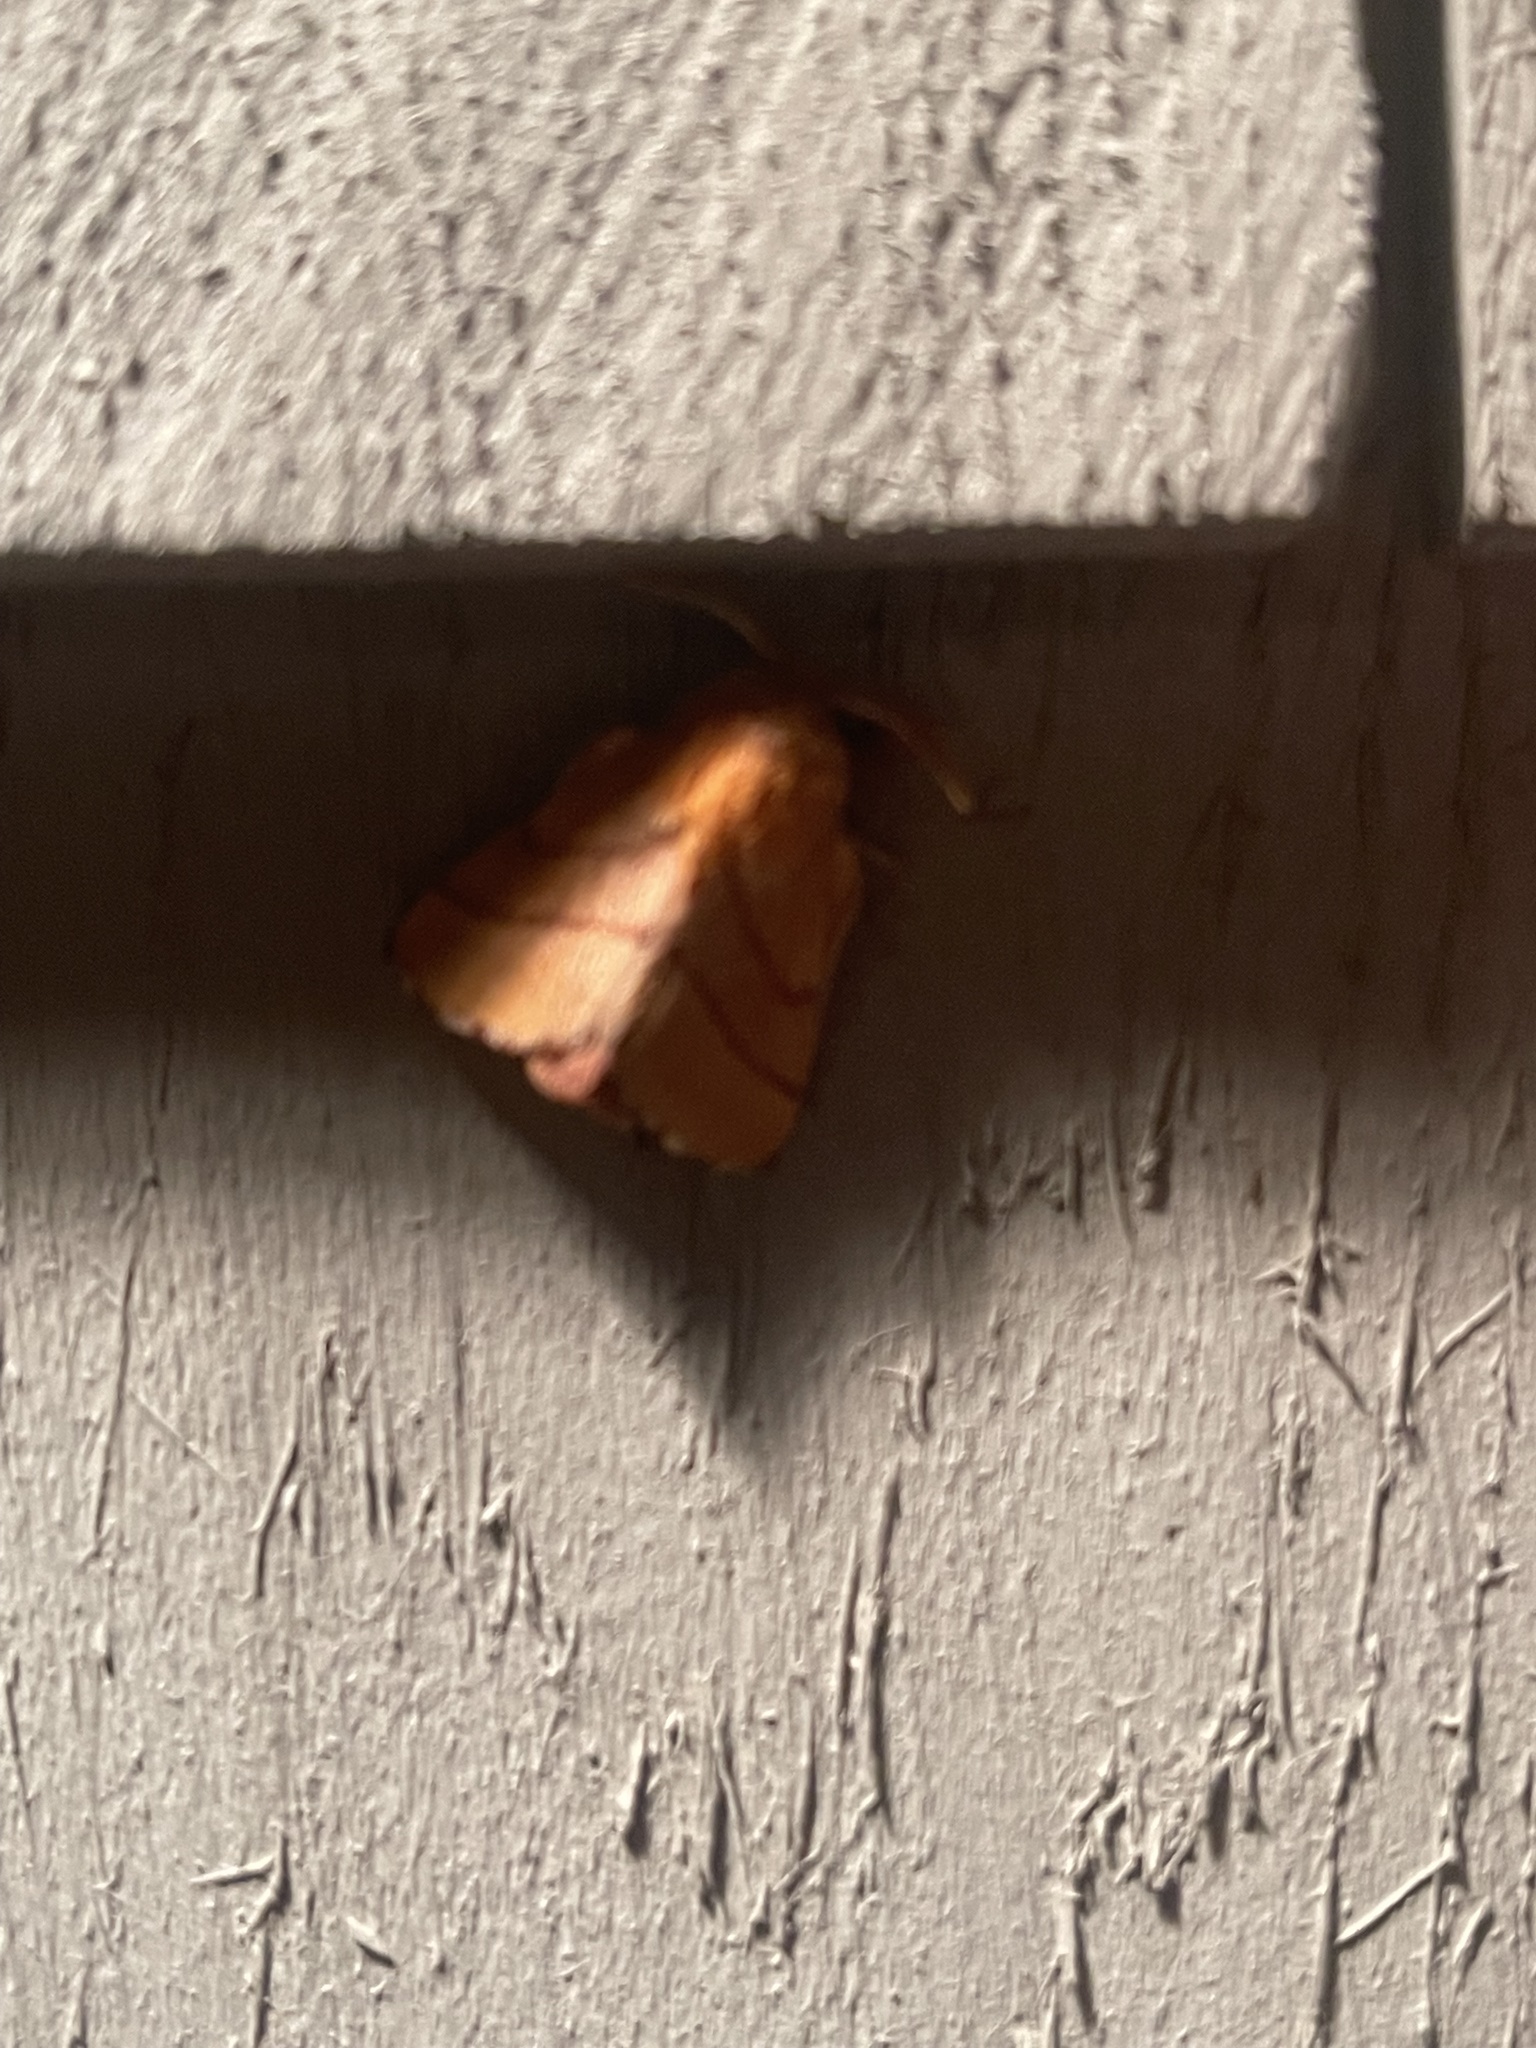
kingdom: Animalia
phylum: Arthropoda
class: Insecta
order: Lepidoptera
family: Lasiocampidae
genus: Malacosoma
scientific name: Malacosoma disstria
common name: Forest tent caterpillar
